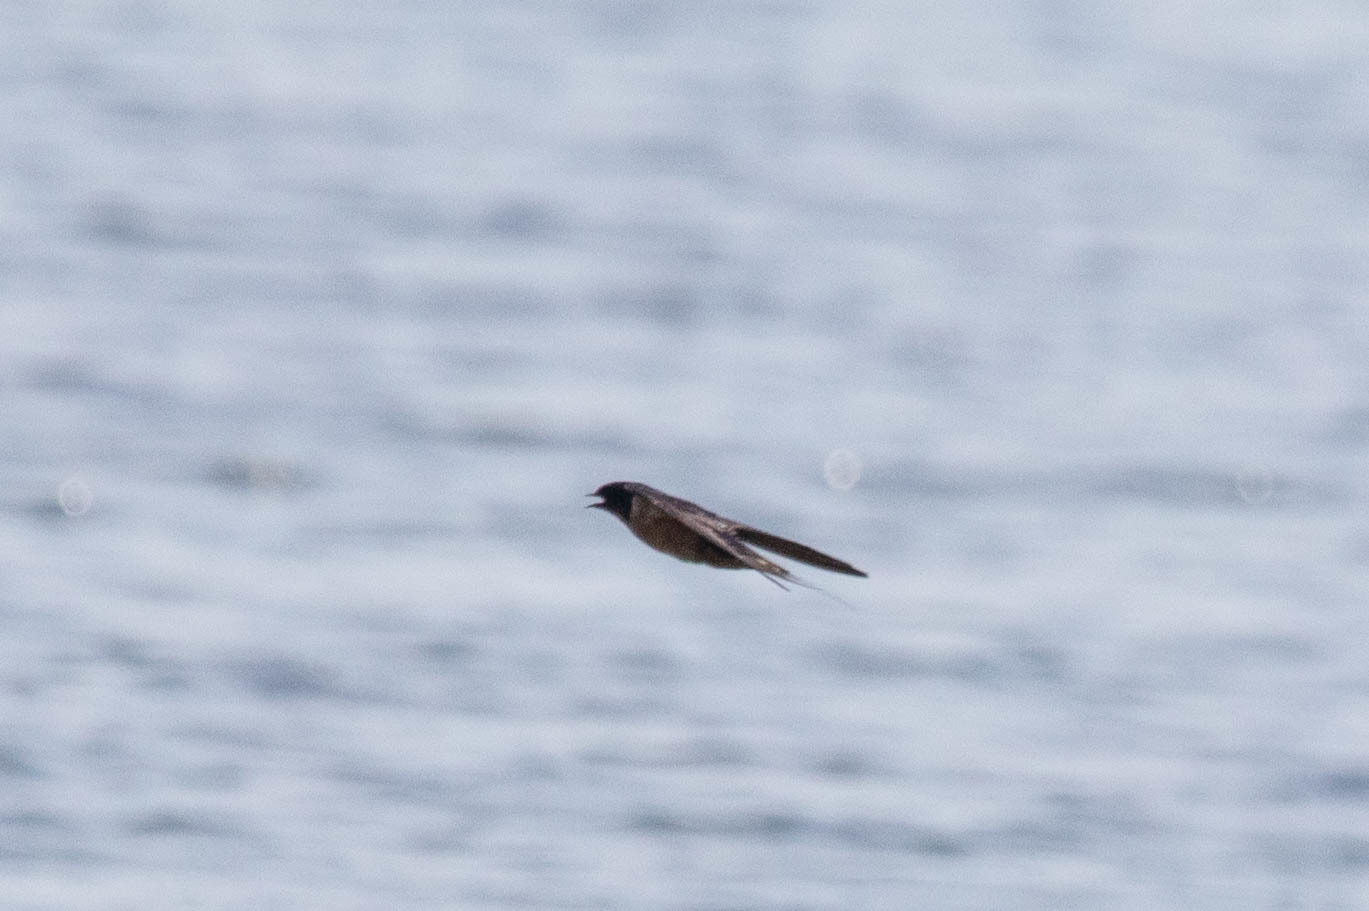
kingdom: Animalia
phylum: Chordata
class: Aves
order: Passeriformes
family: Hirundinidae
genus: Hirundo
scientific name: Hirundo rustica
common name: Barn swallow
